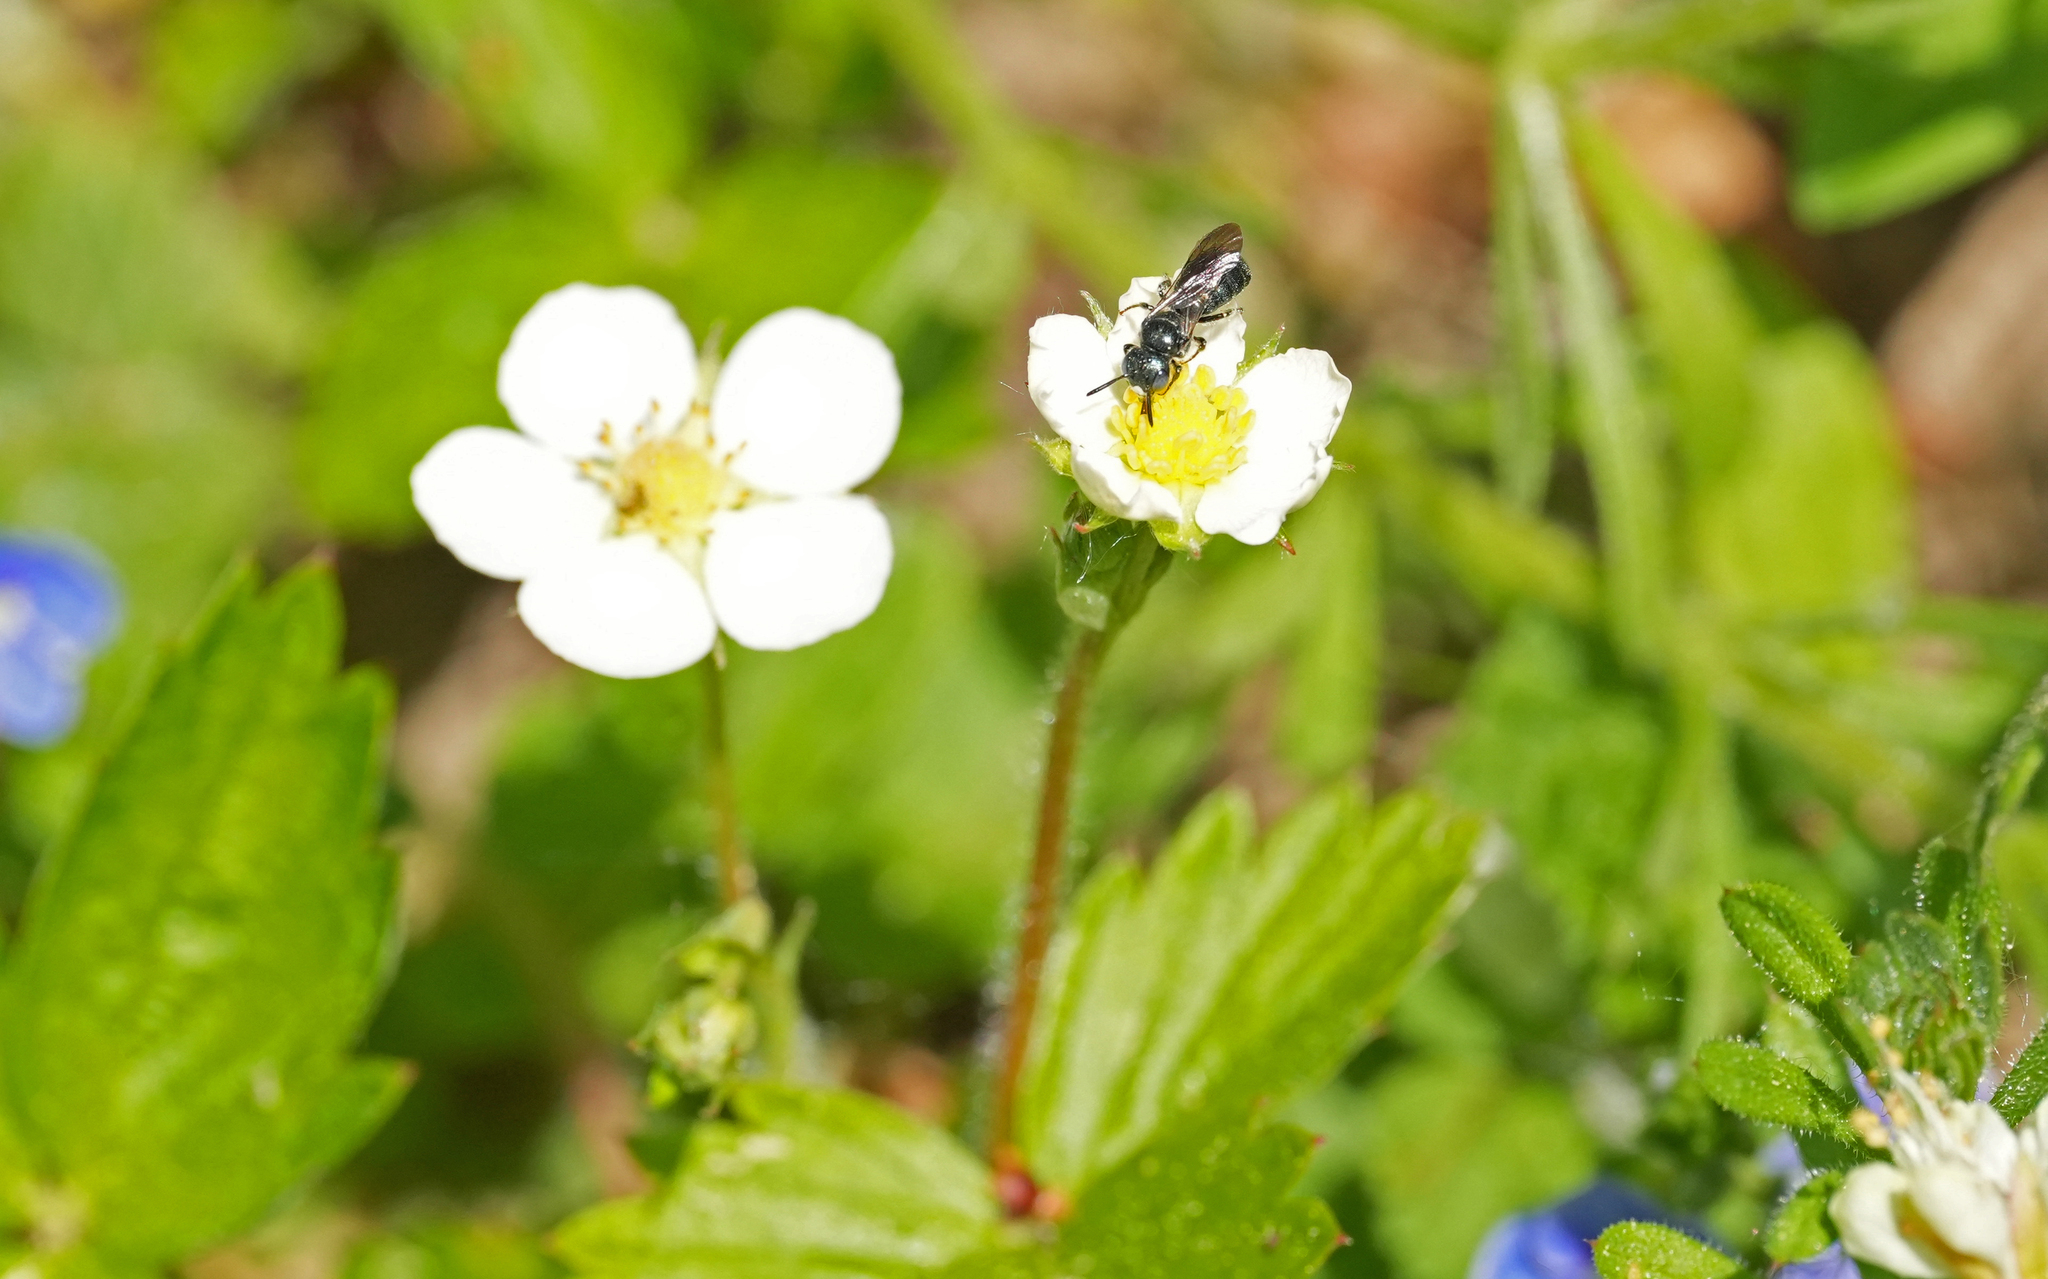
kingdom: Animalia
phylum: Arthropoda
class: Insecta
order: Hymenoptera
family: Apidae
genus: Ceratina
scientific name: Ceratina cyanea
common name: Little blue carpenter bee
